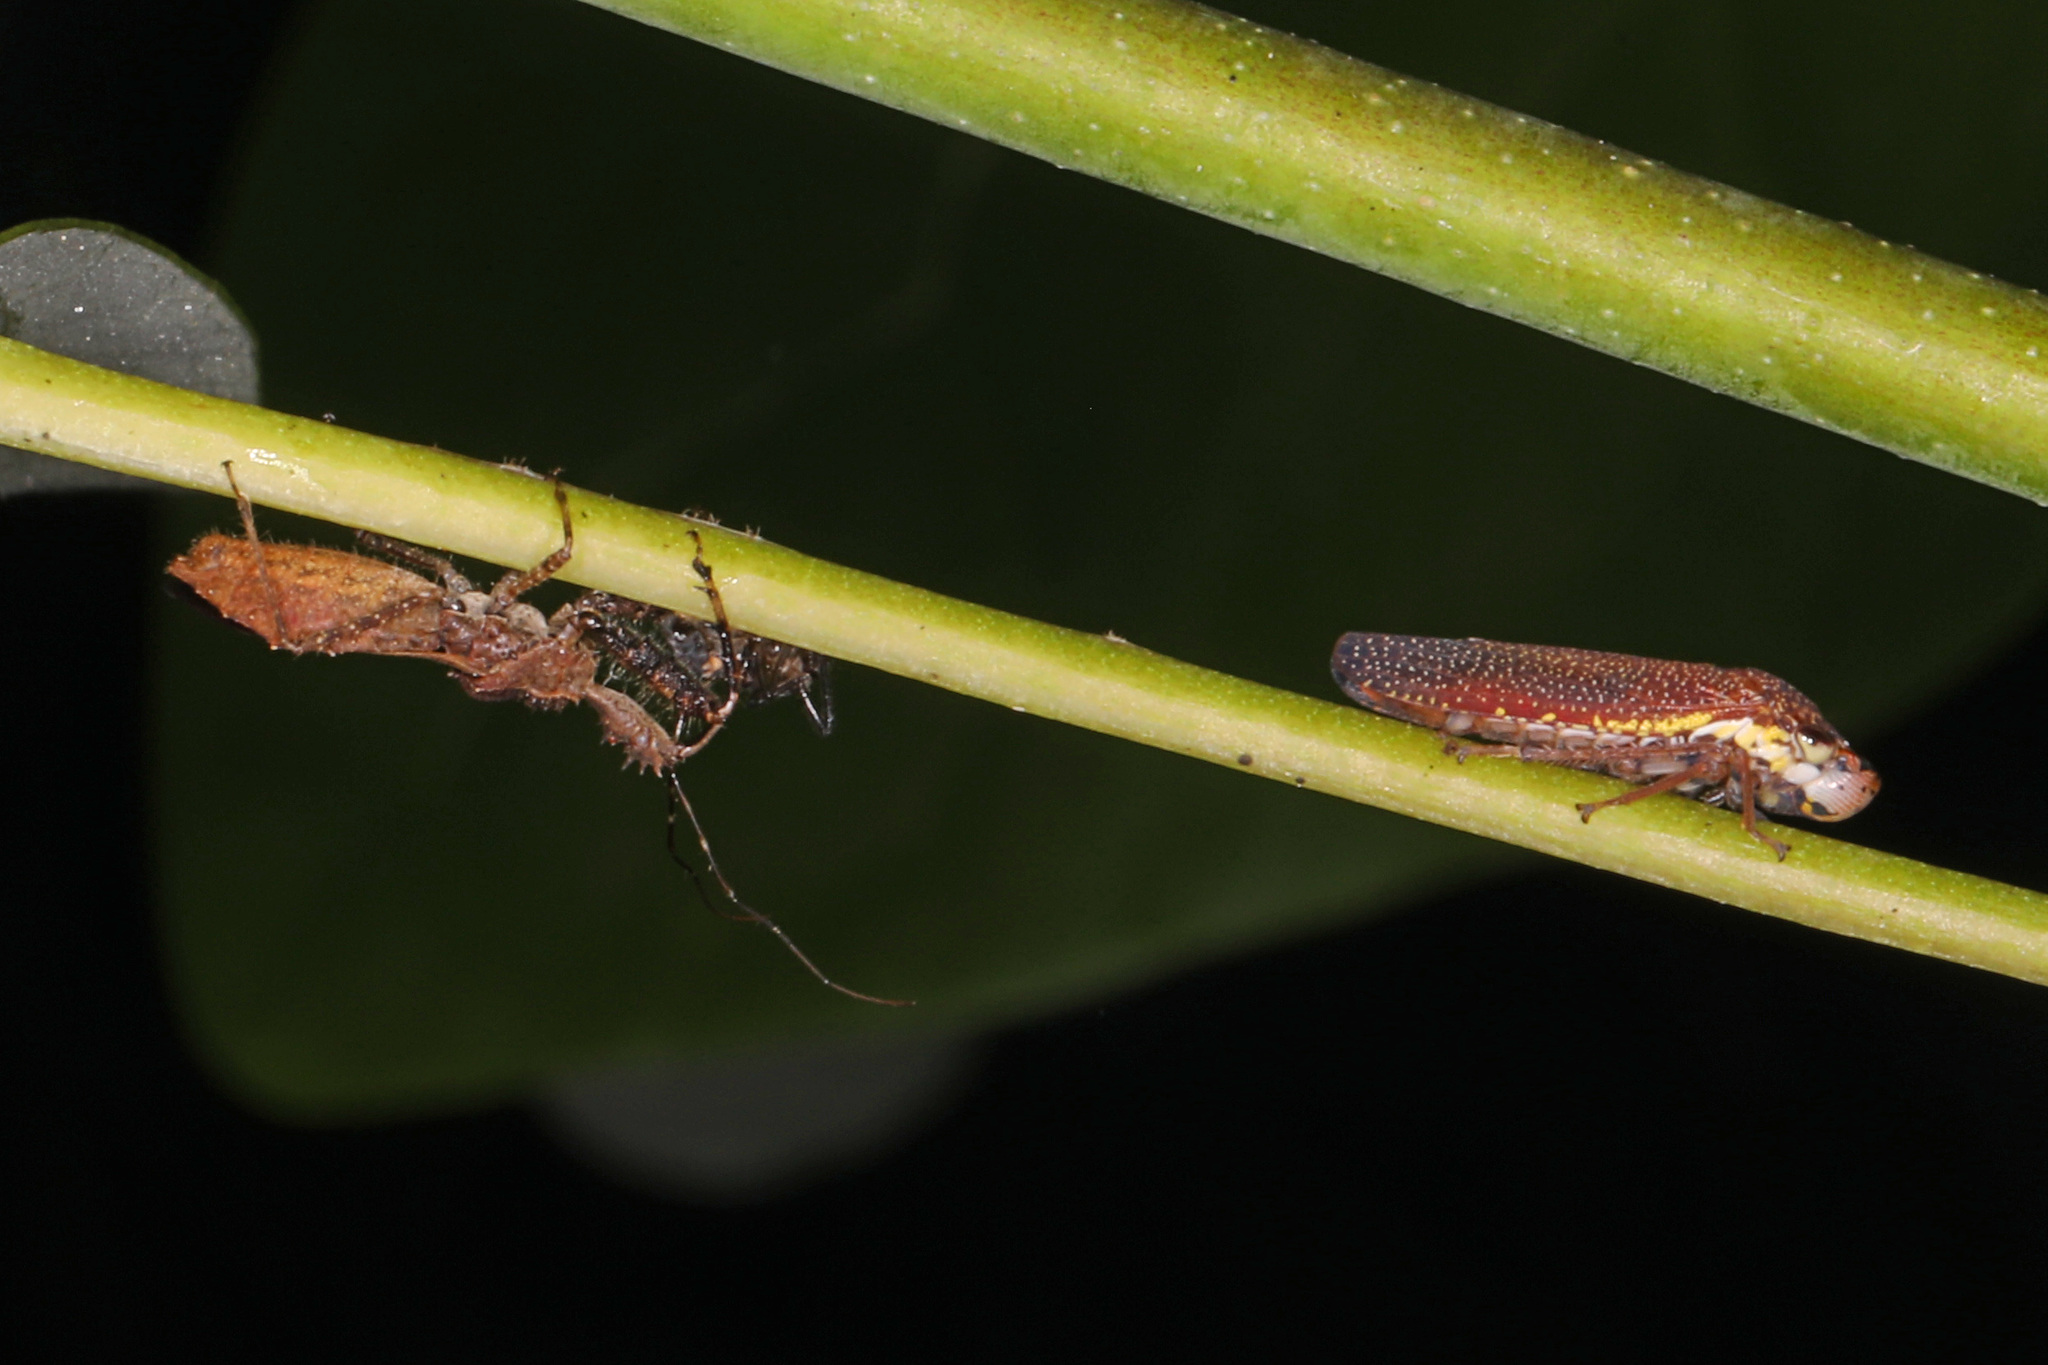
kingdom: Animalia
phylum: Arthropoda
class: Insecta
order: Hemiptera
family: Cicadellidae
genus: Paraulacizes
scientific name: Paraulacizes irrorata
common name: Speckled sharpshooter
